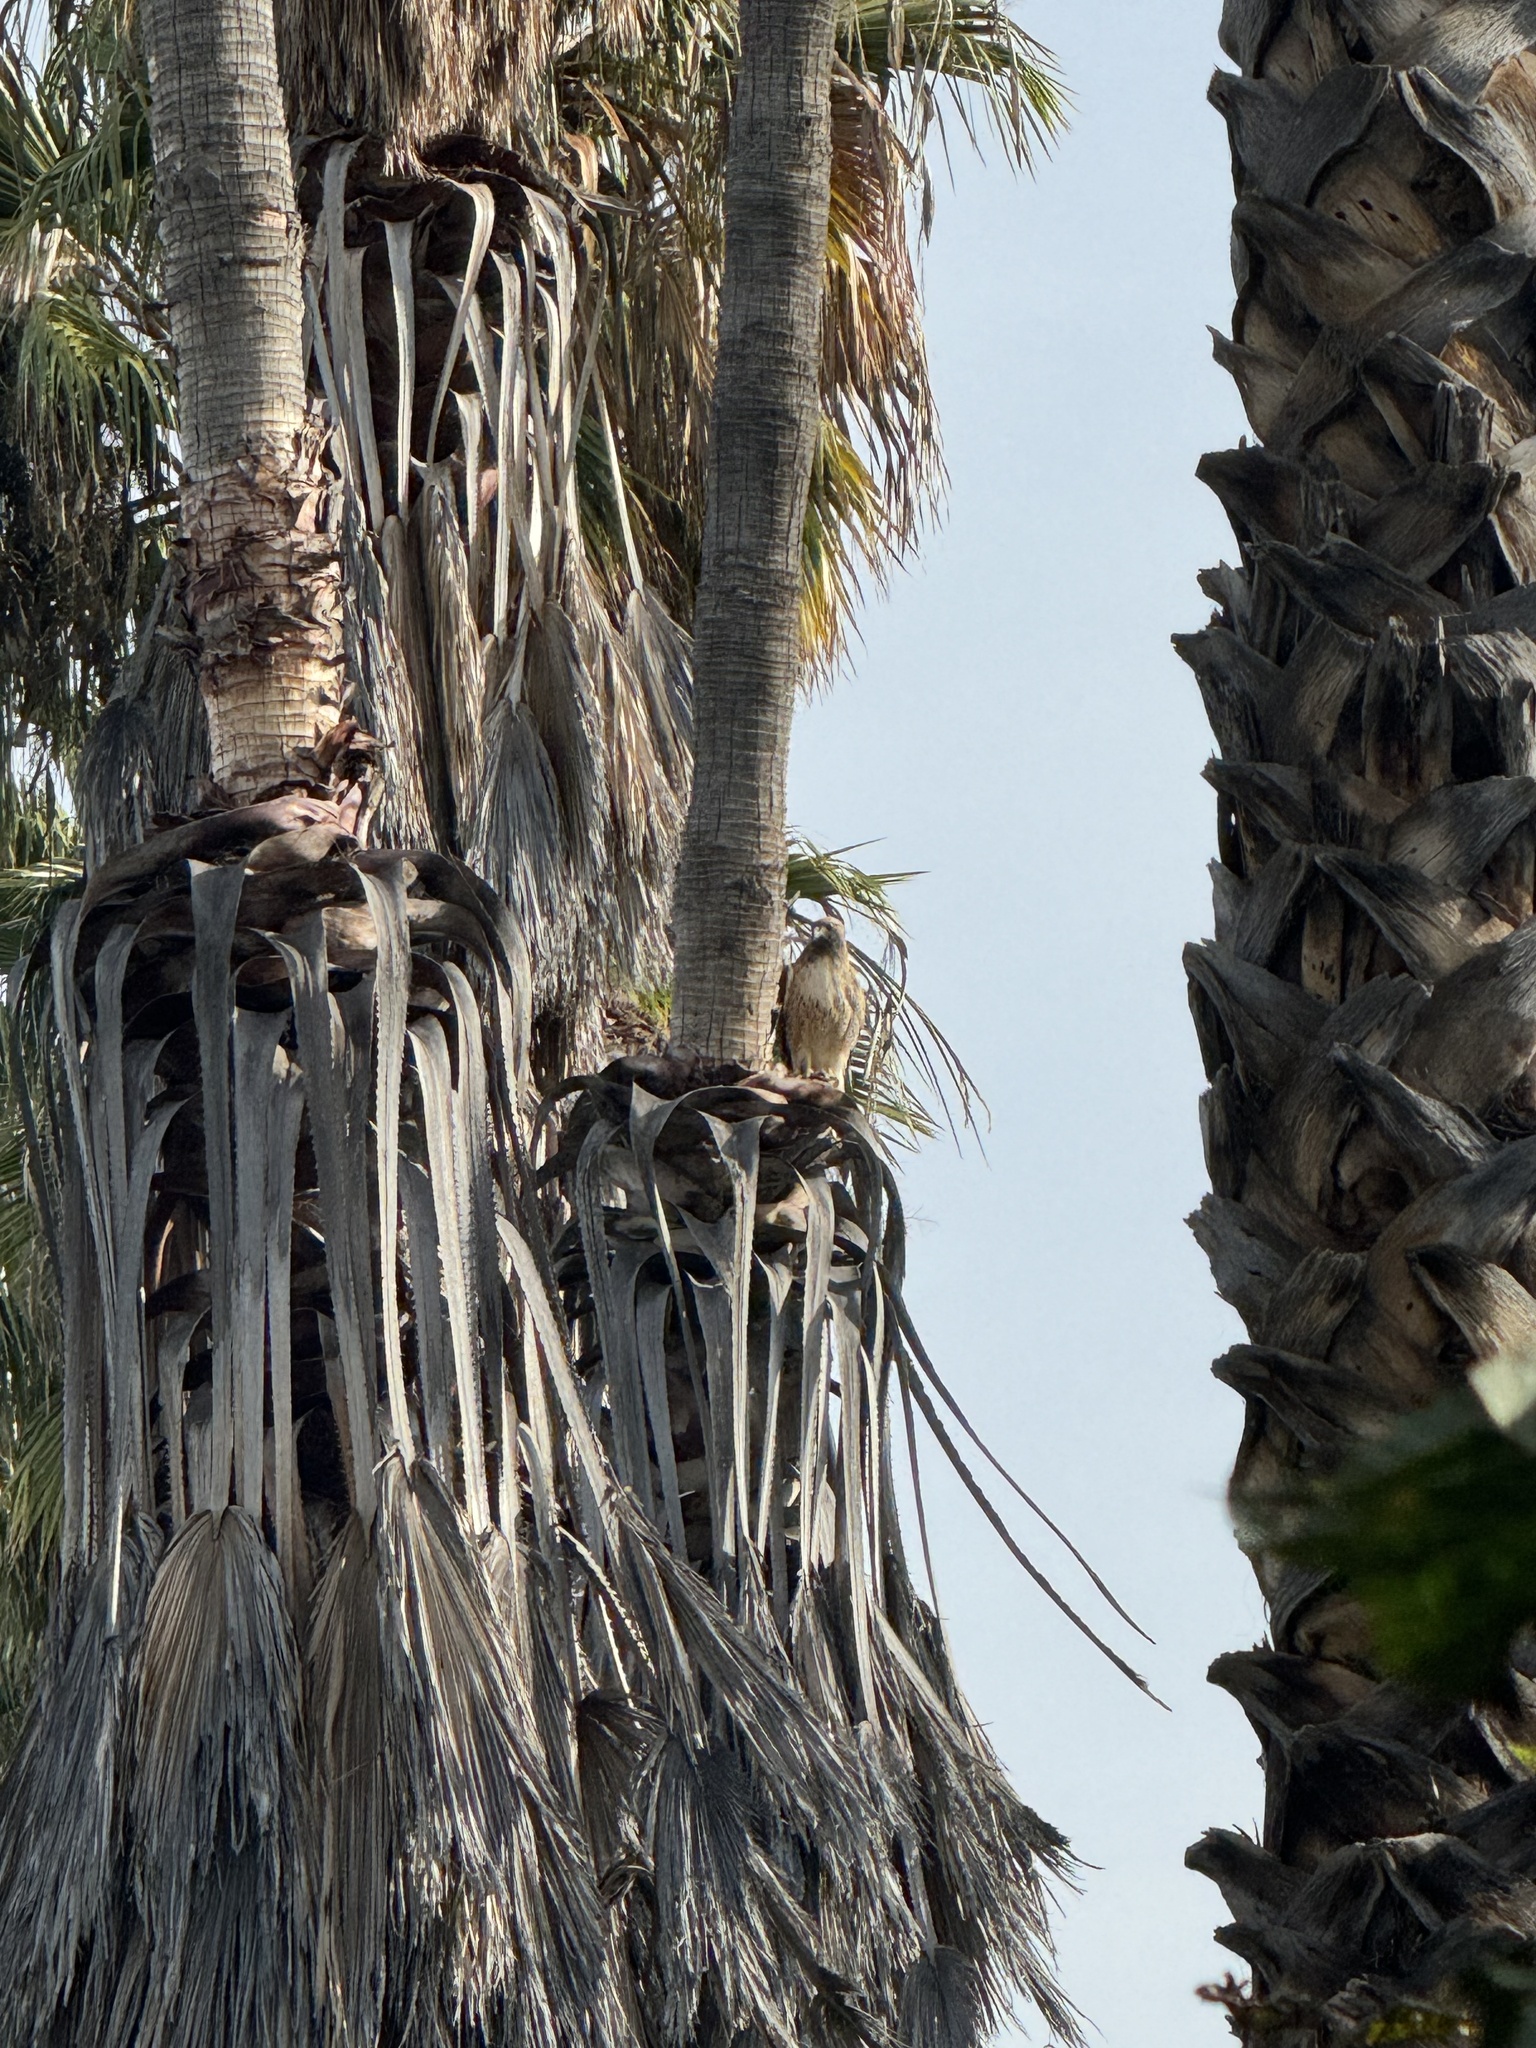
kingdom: Animalia
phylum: Chordata
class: Aves
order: Accipitriformes
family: Accipitridae
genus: Buteo
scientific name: Buteo jamaicensis
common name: Red-tailed hawk
